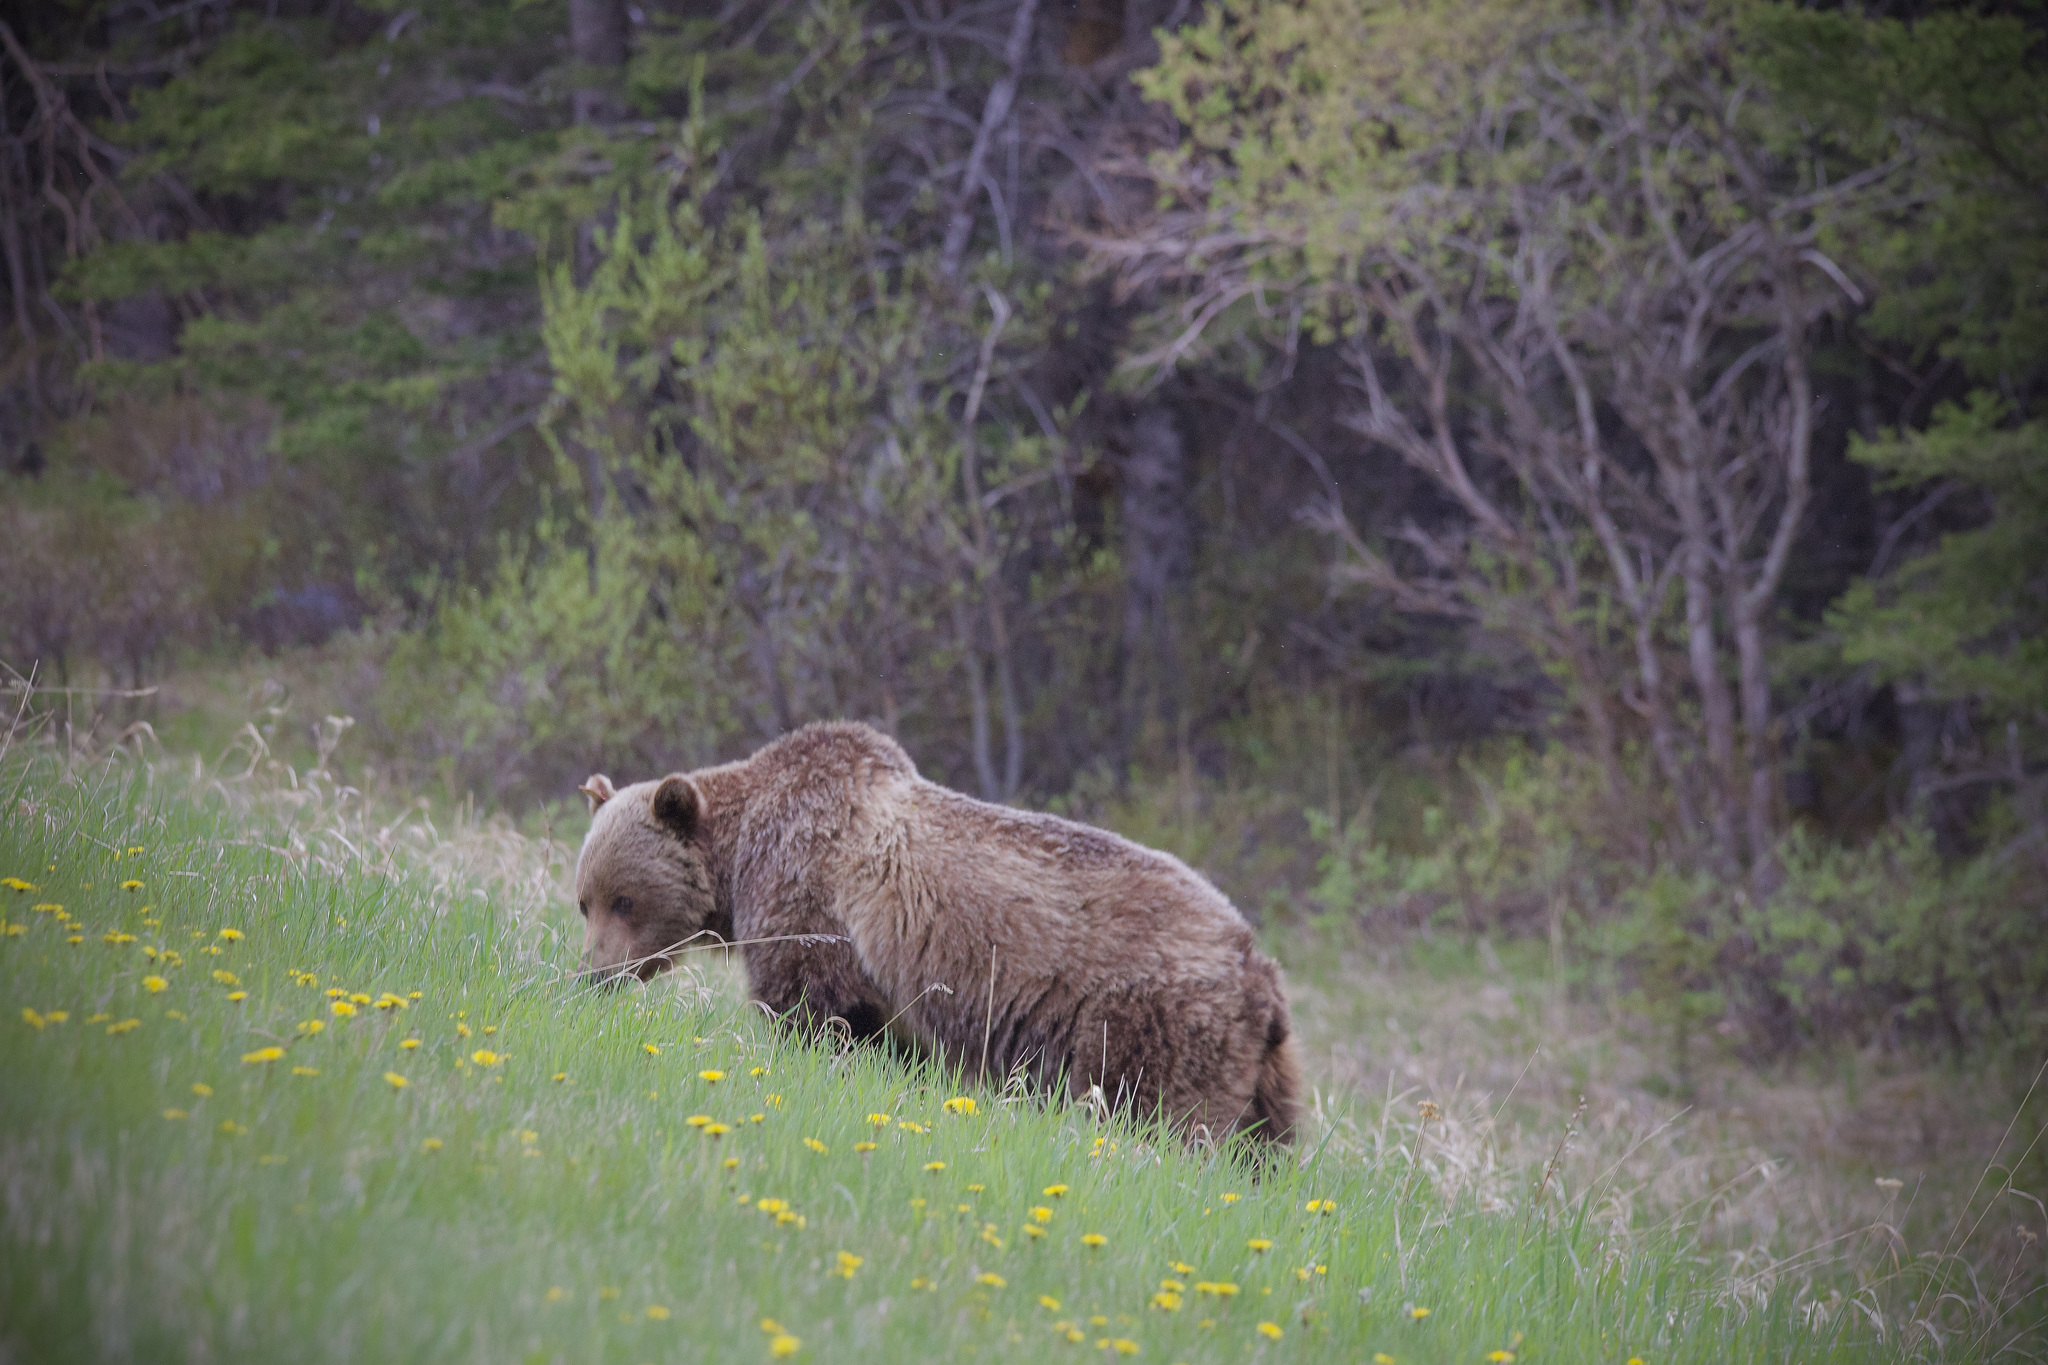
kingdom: Animalia
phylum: Chordata
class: Mammalia
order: Carnivora
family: Ursidae
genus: Ursus
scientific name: Ursus arctos
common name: Brown bear
